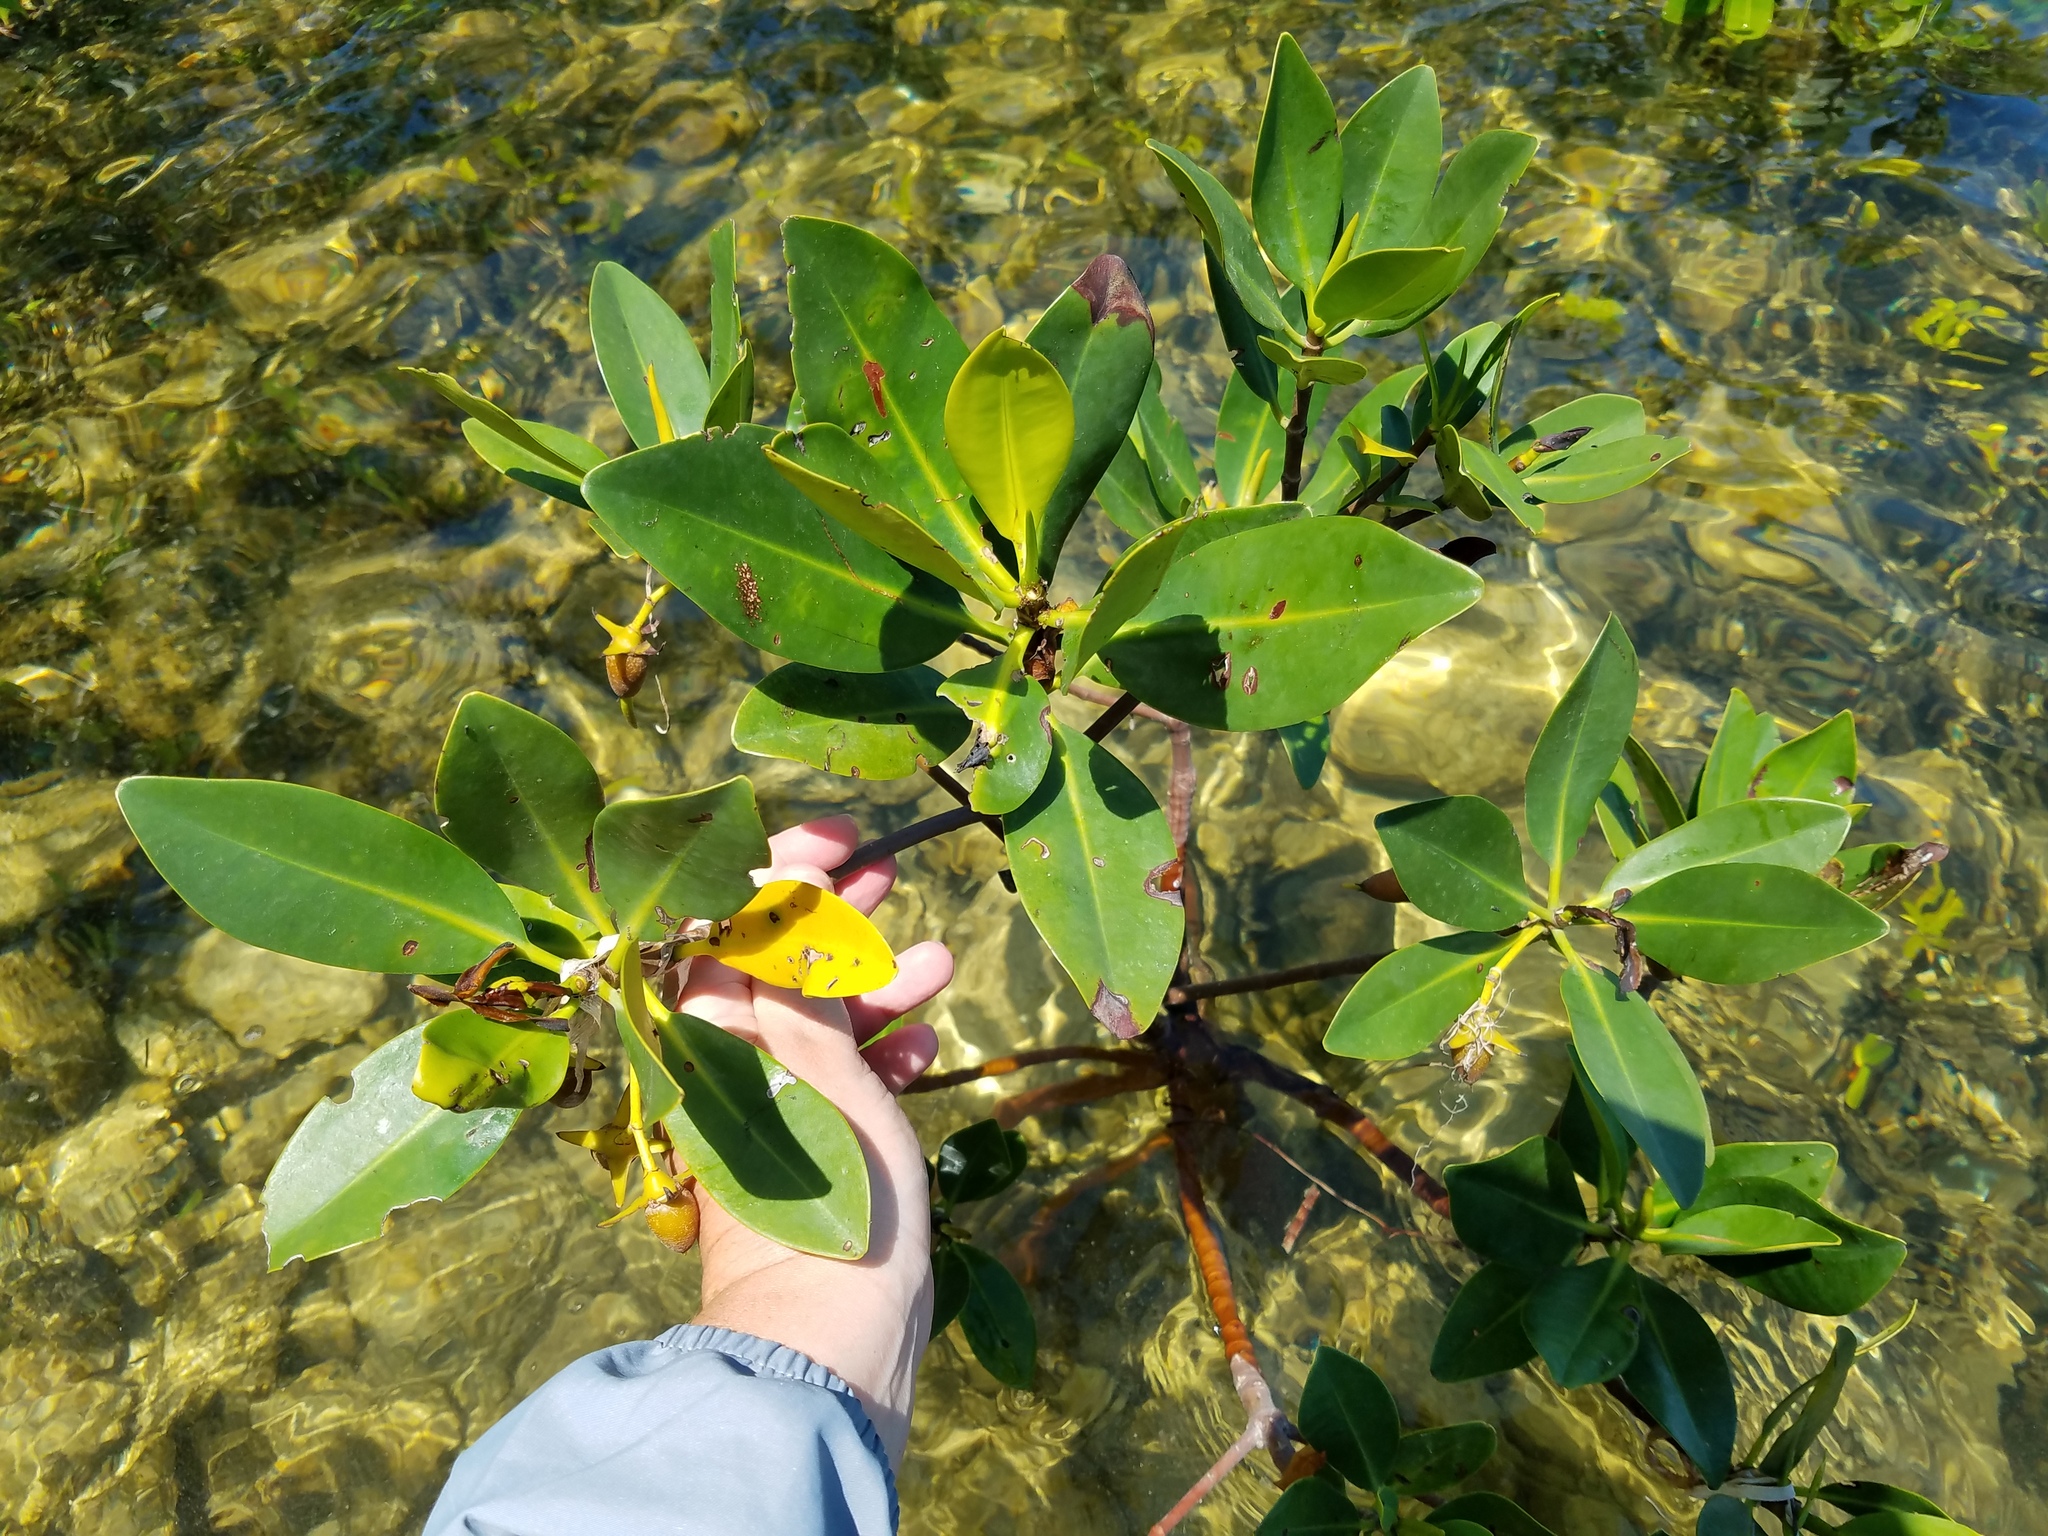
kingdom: Plantae
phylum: Tracheophyta
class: Magnoliopsida
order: Malpighiales
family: Rhizophoraceae
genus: Rhizophora
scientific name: Rhizophora mangle
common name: Red mangrove
